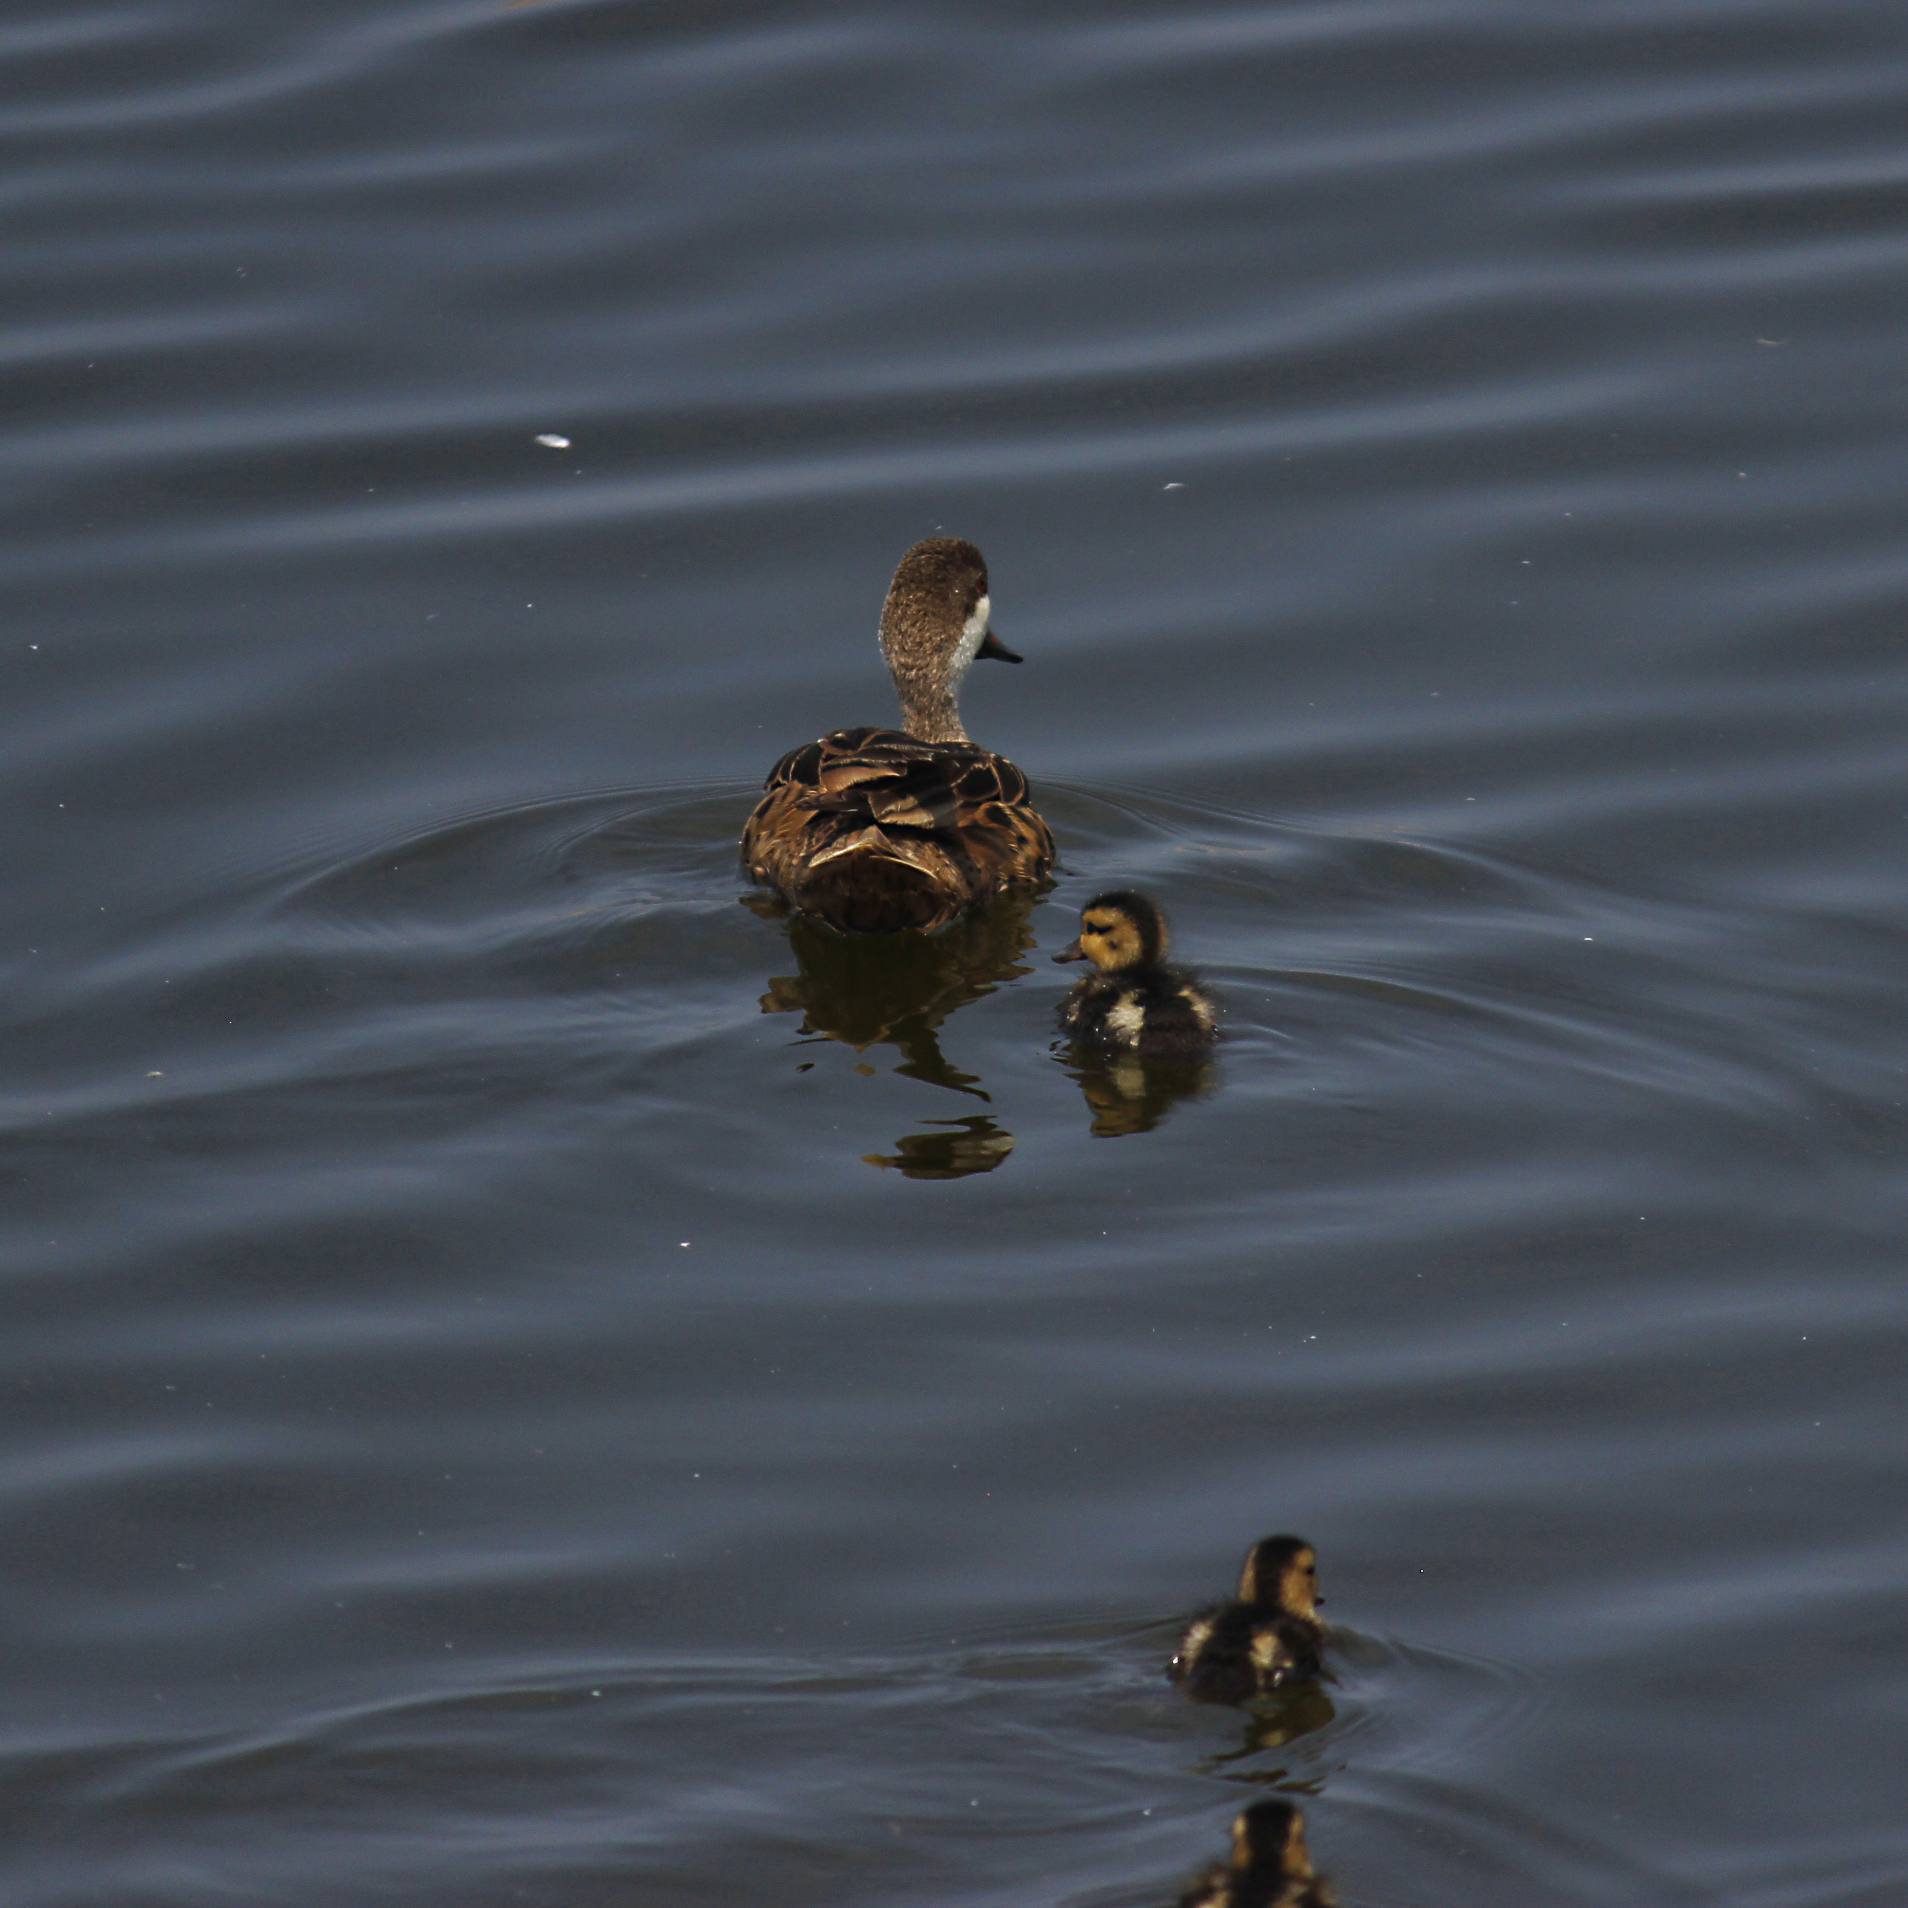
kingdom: Animalia
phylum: Chordata
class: Aves
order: Anseriformes
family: Anatidae
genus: Anas
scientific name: Anas bahamensis
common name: White-cheeked pintail
